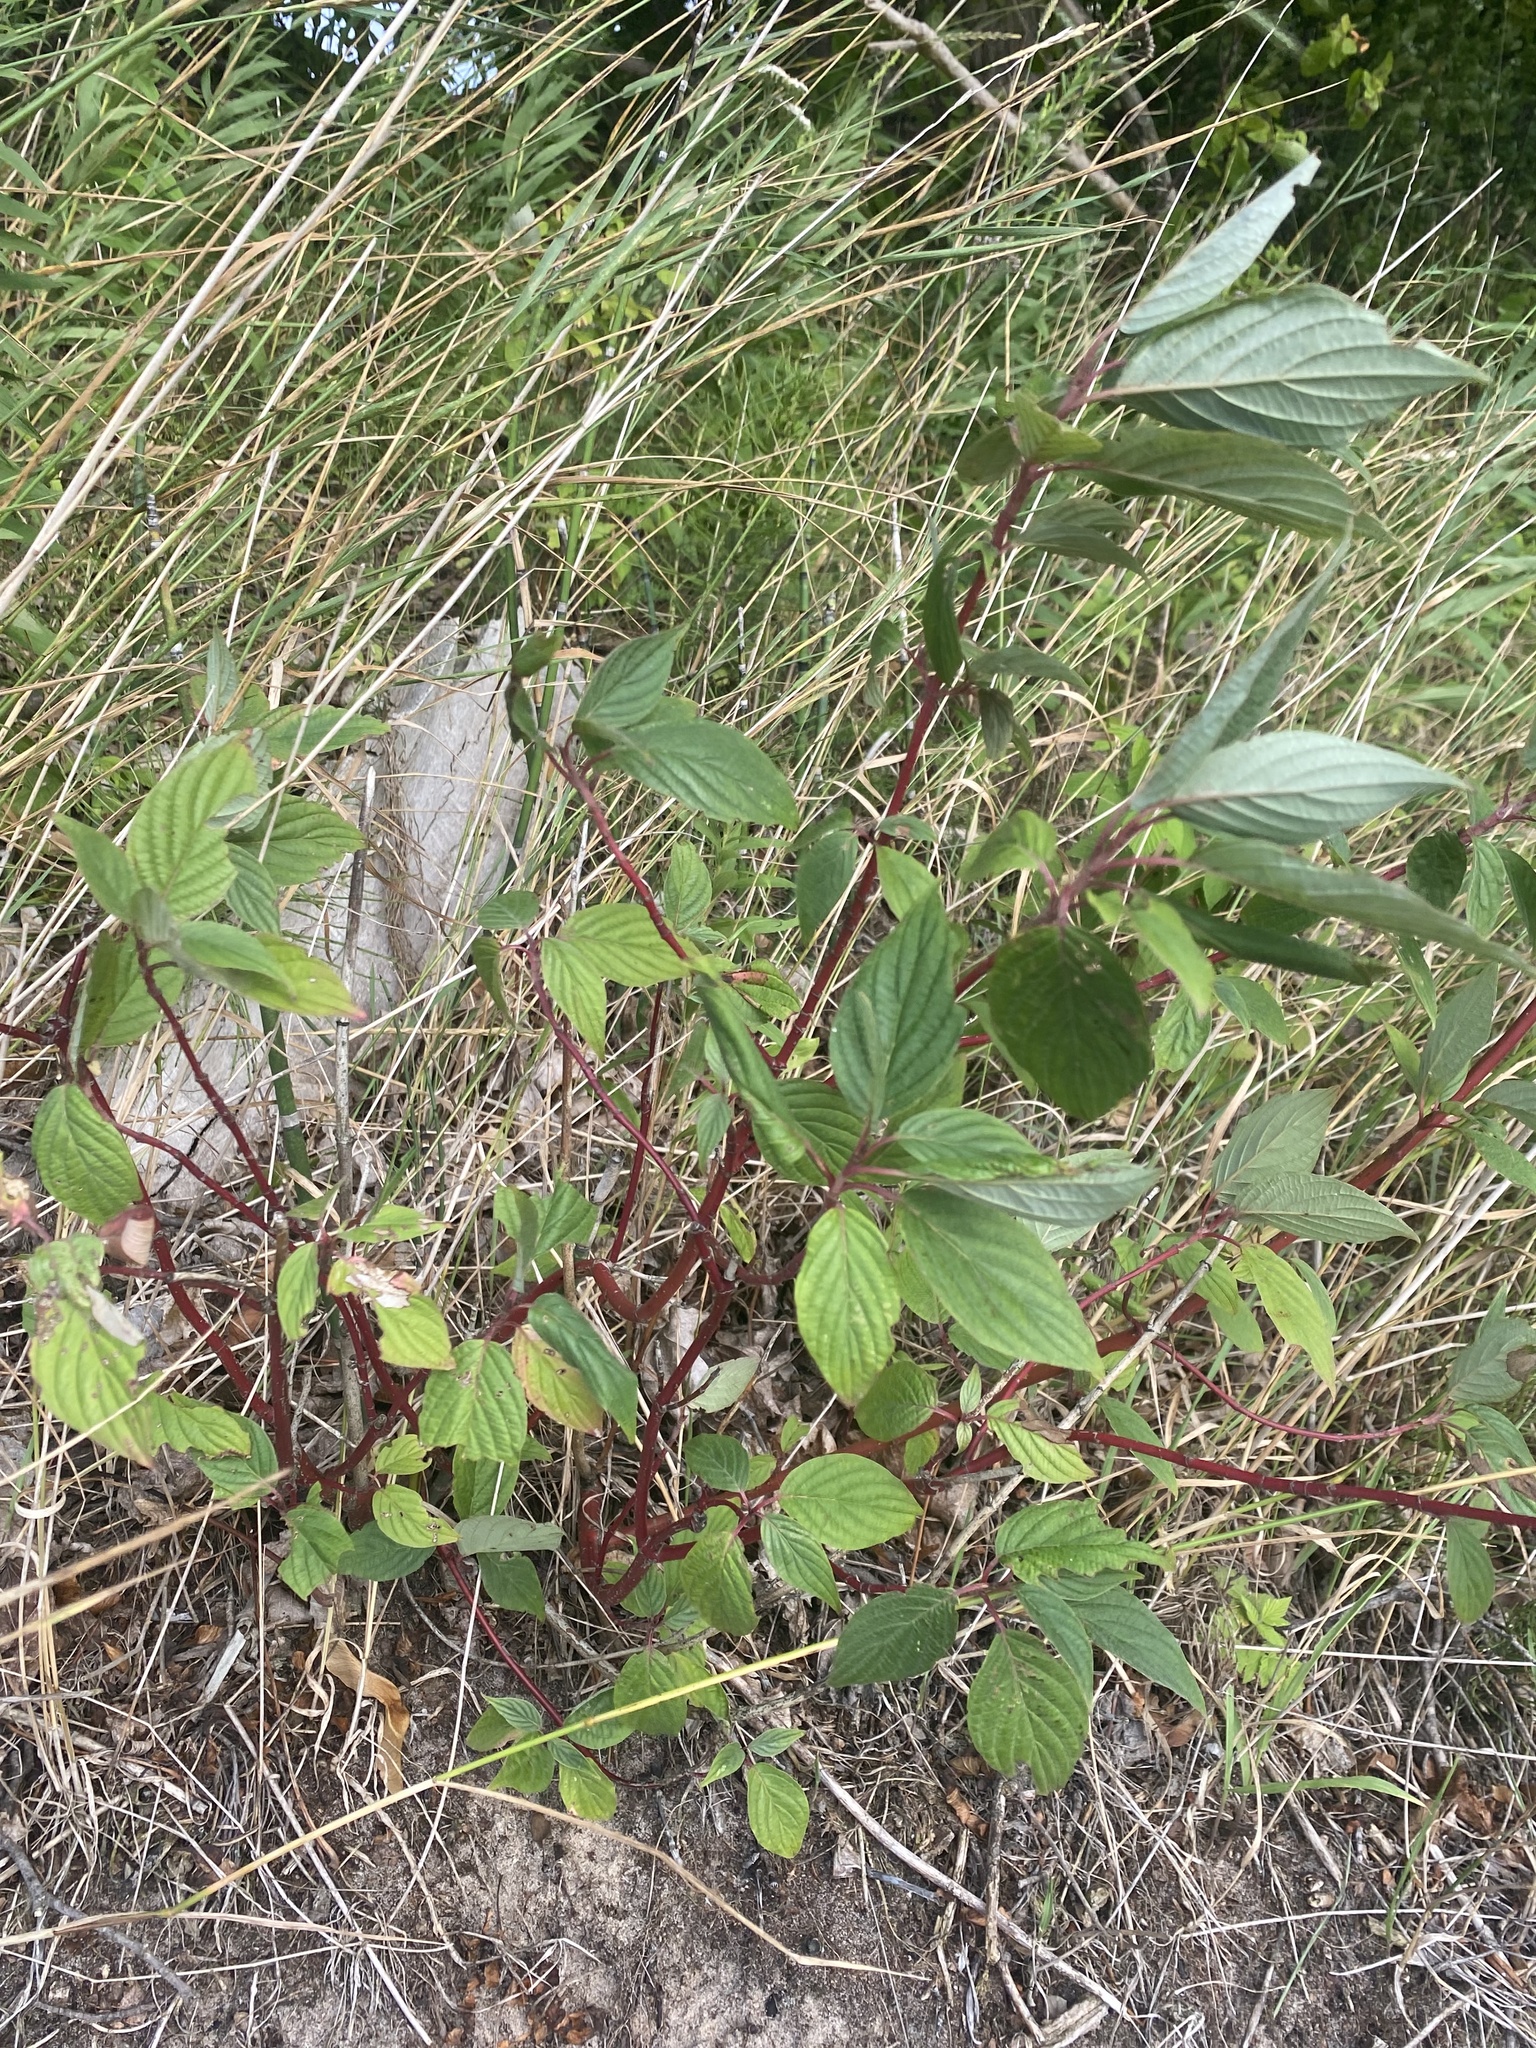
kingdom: Plantae
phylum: Tracheophyta
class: Magnoliopsida
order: Cornales
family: Cornaceae
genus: Cornus
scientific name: Cornus sericea
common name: Red-osier dogwood
